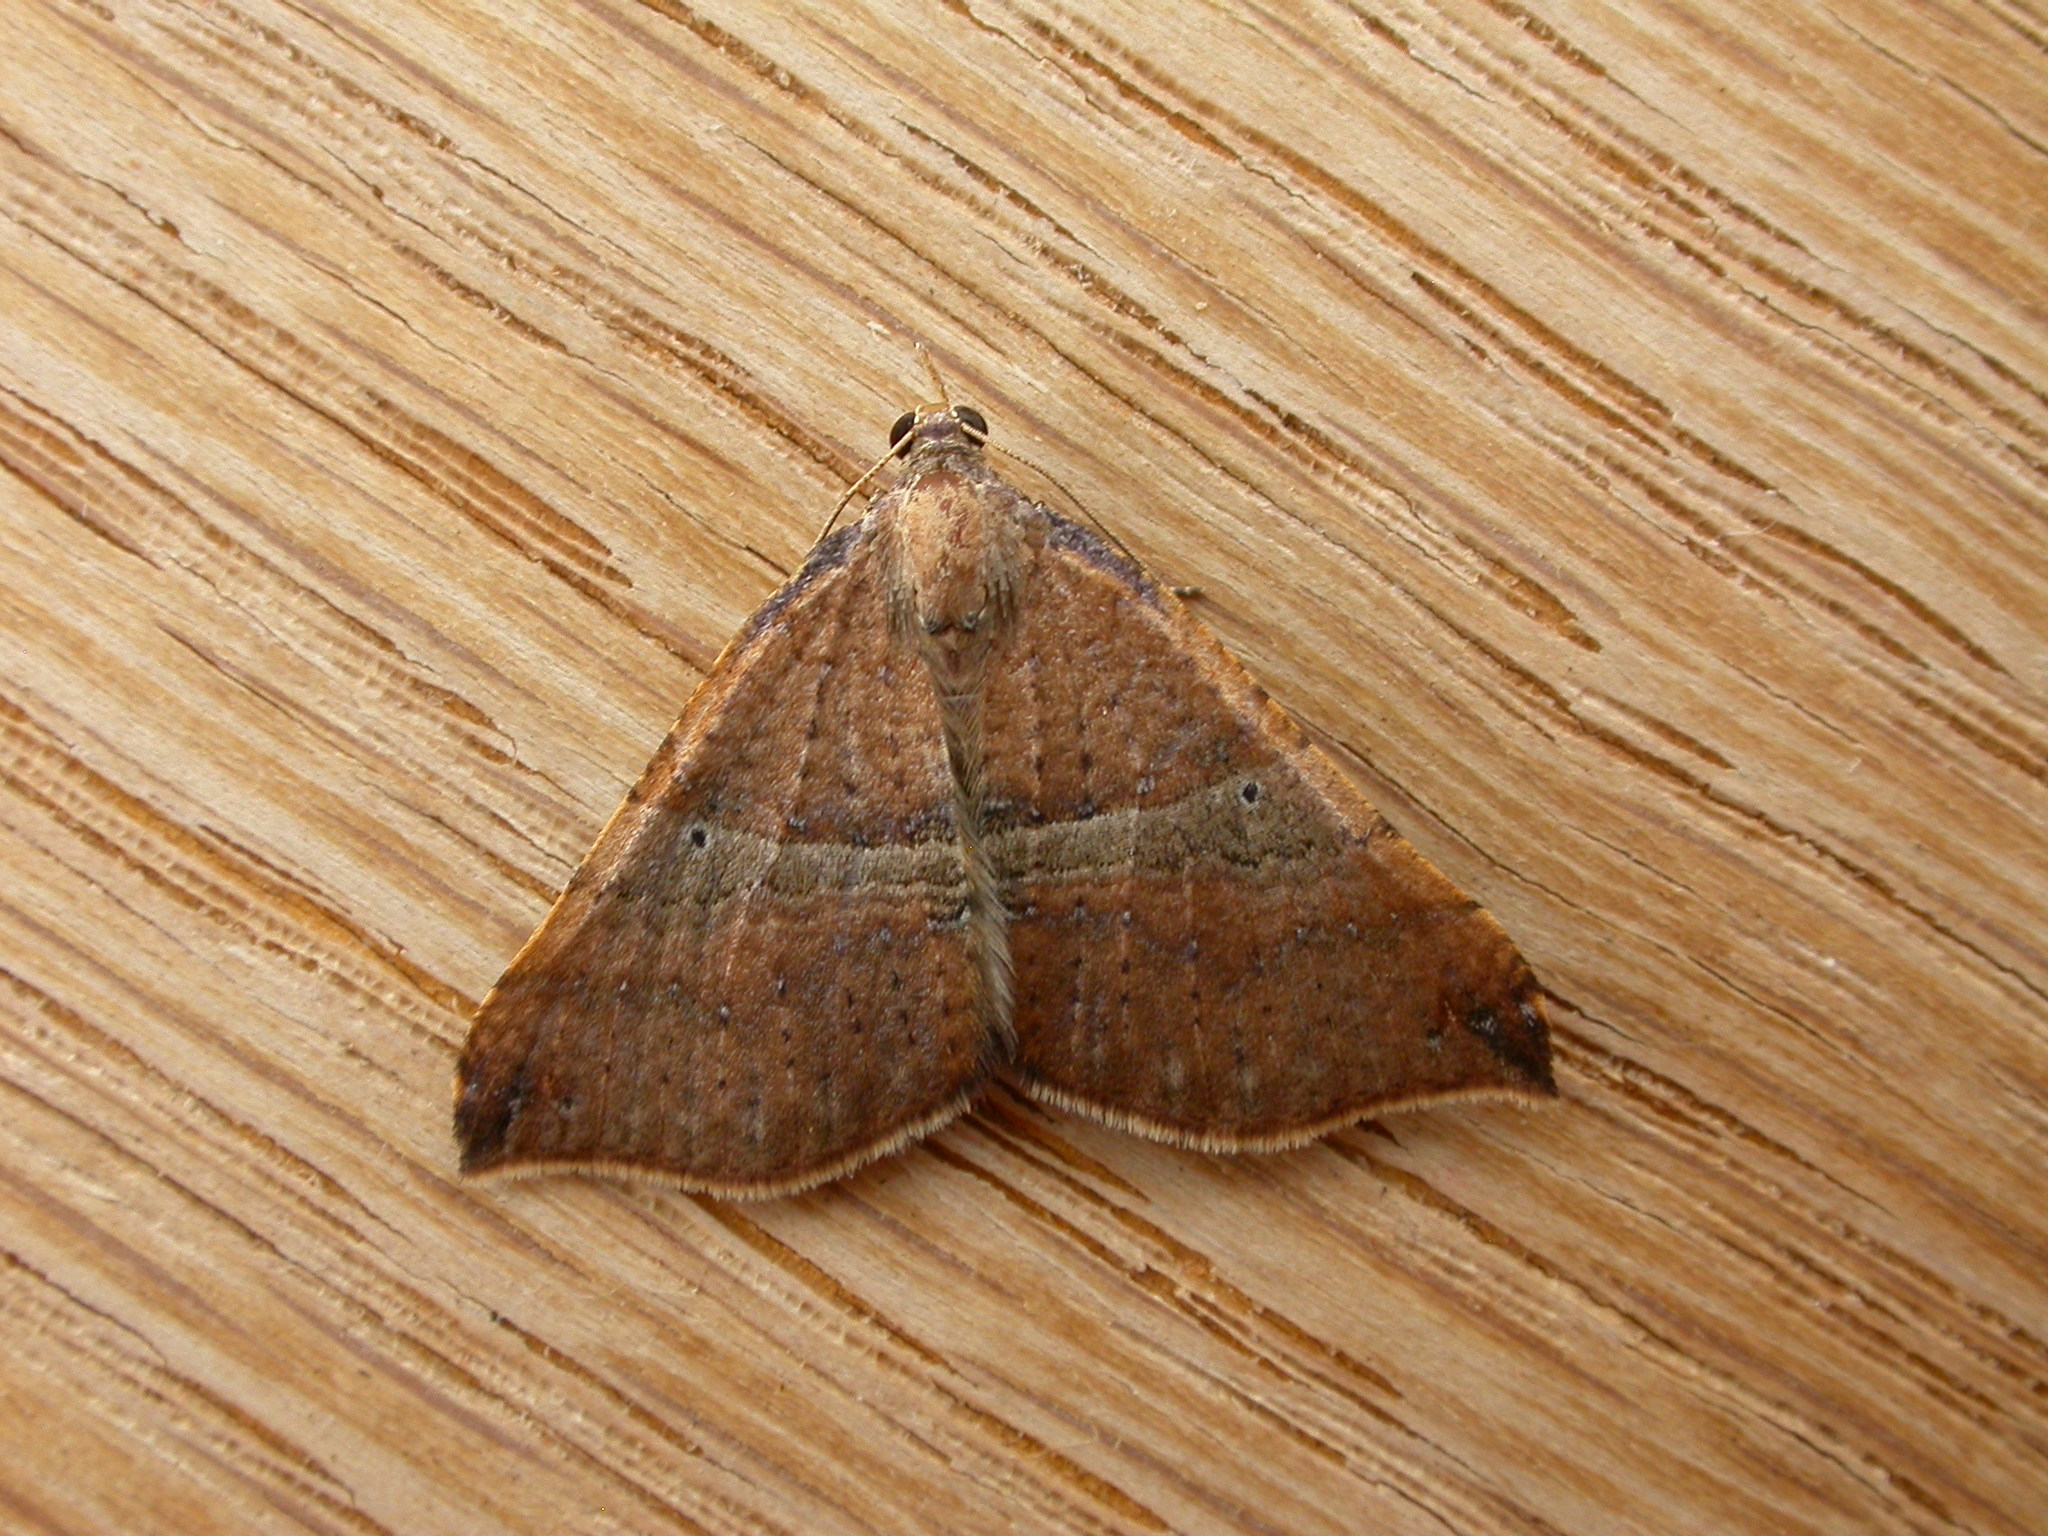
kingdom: Animalia
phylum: Arthropoda
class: Insecta
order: Lepidoptera
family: Geometridae
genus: Anachloris
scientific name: Anachloris uncinata
